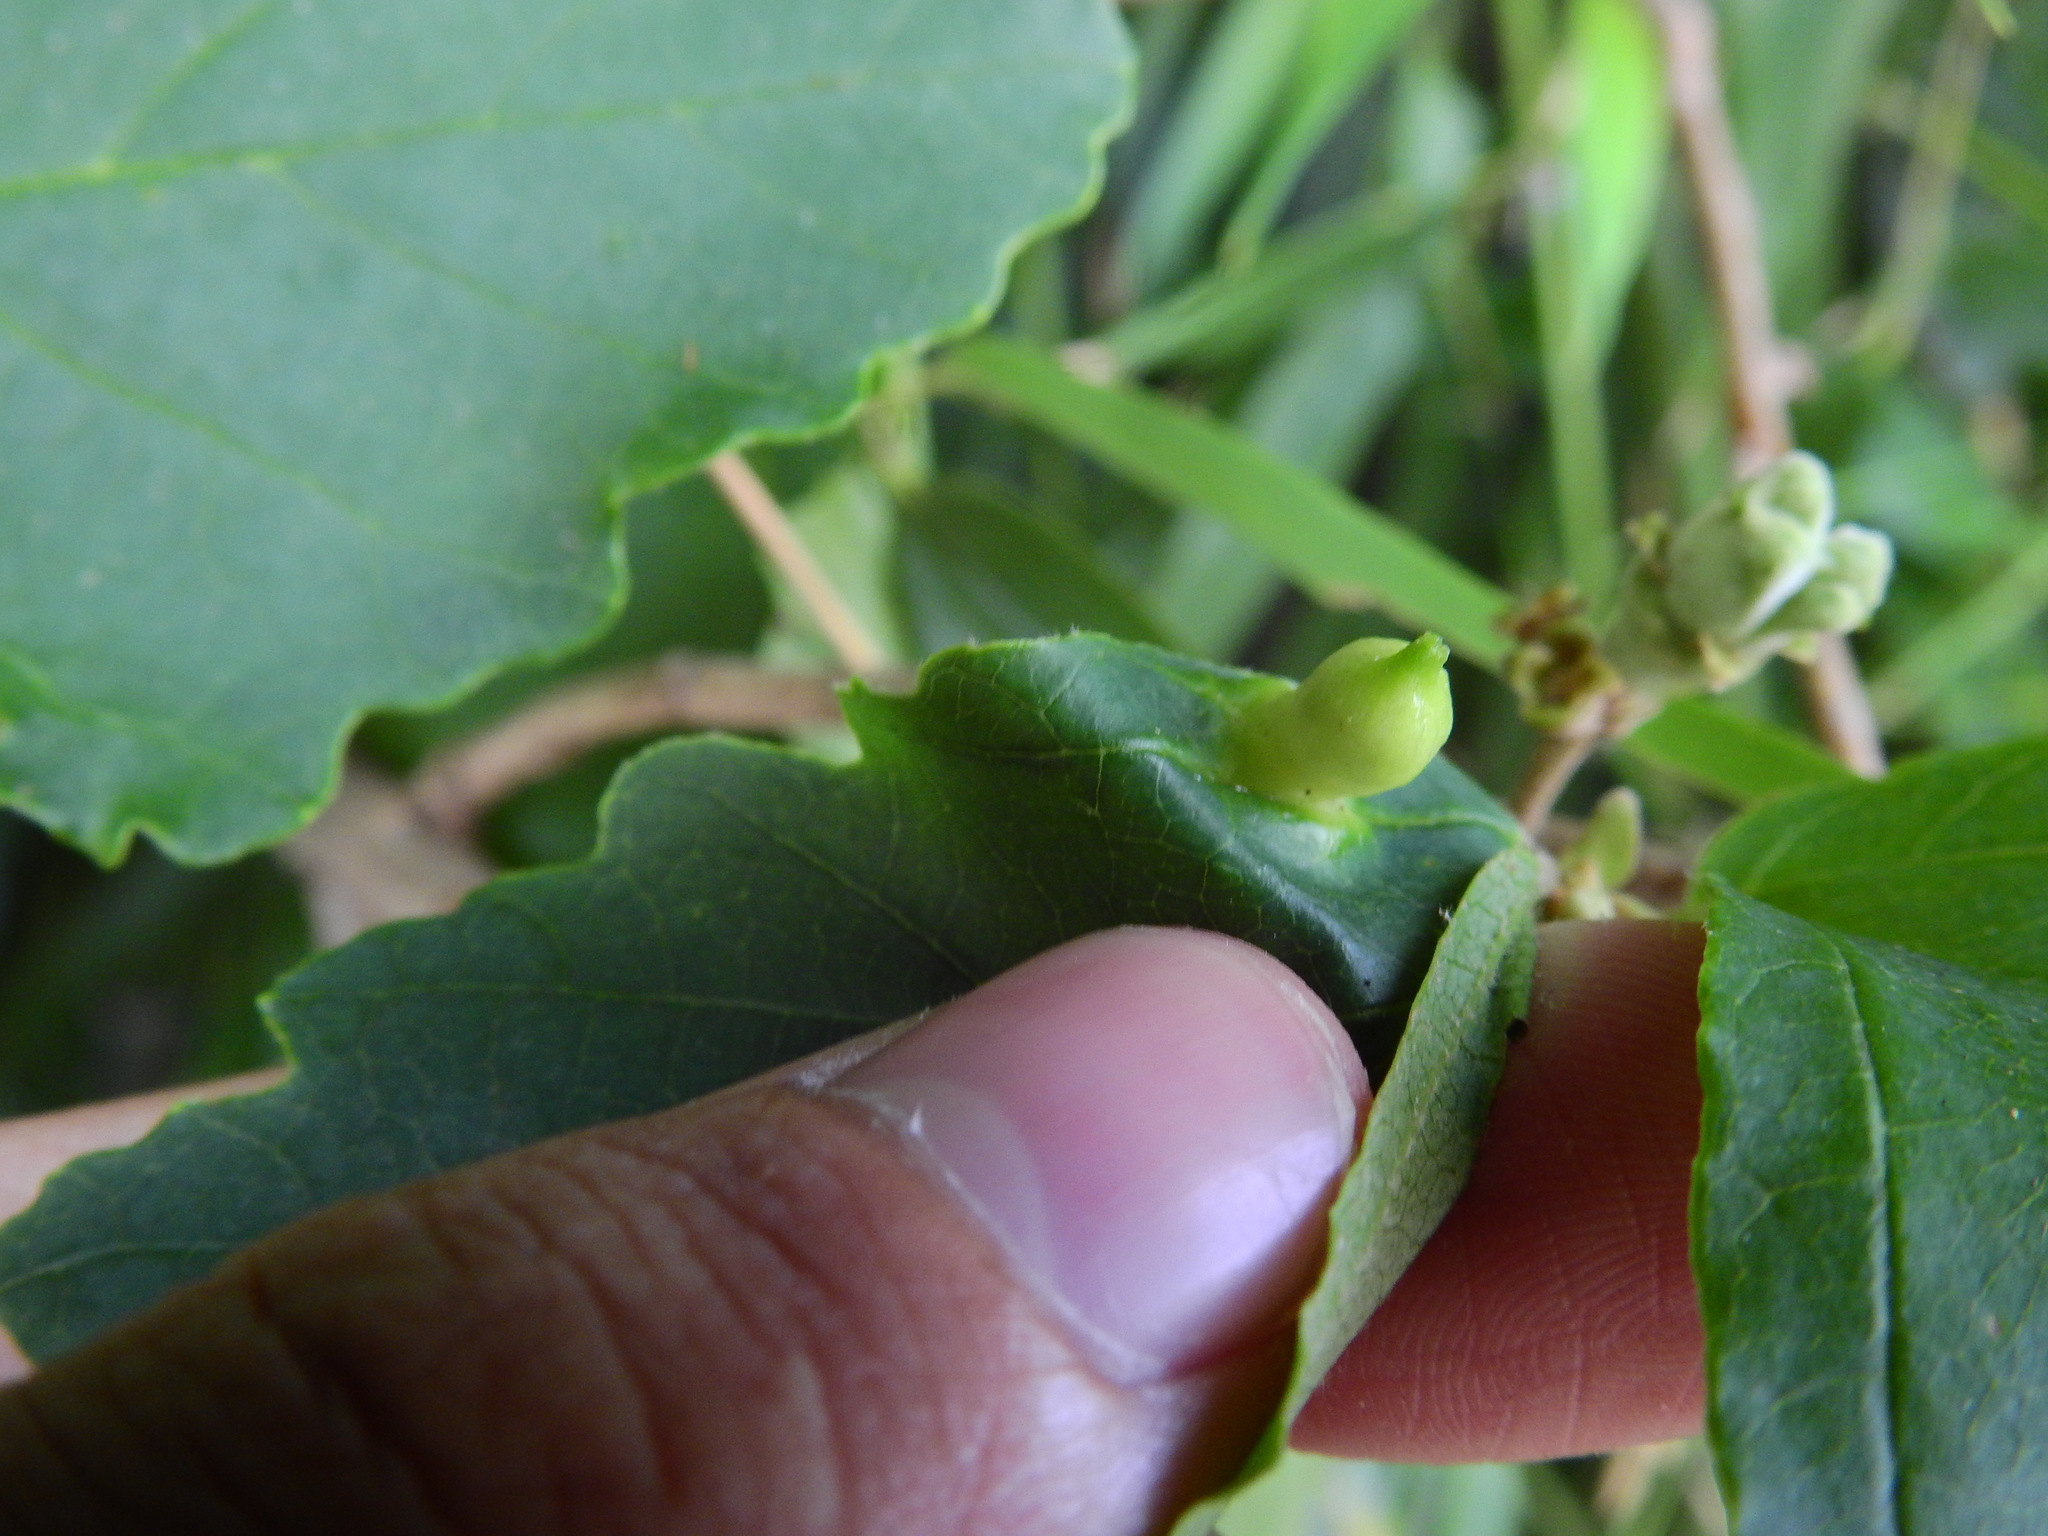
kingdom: Animalia
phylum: Arthropoda
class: Insecta
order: Hemiptera
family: Aphididae
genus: Hormaphis
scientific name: Hormaphis hamamelidis
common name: Witch-hazel cone gall aphid
